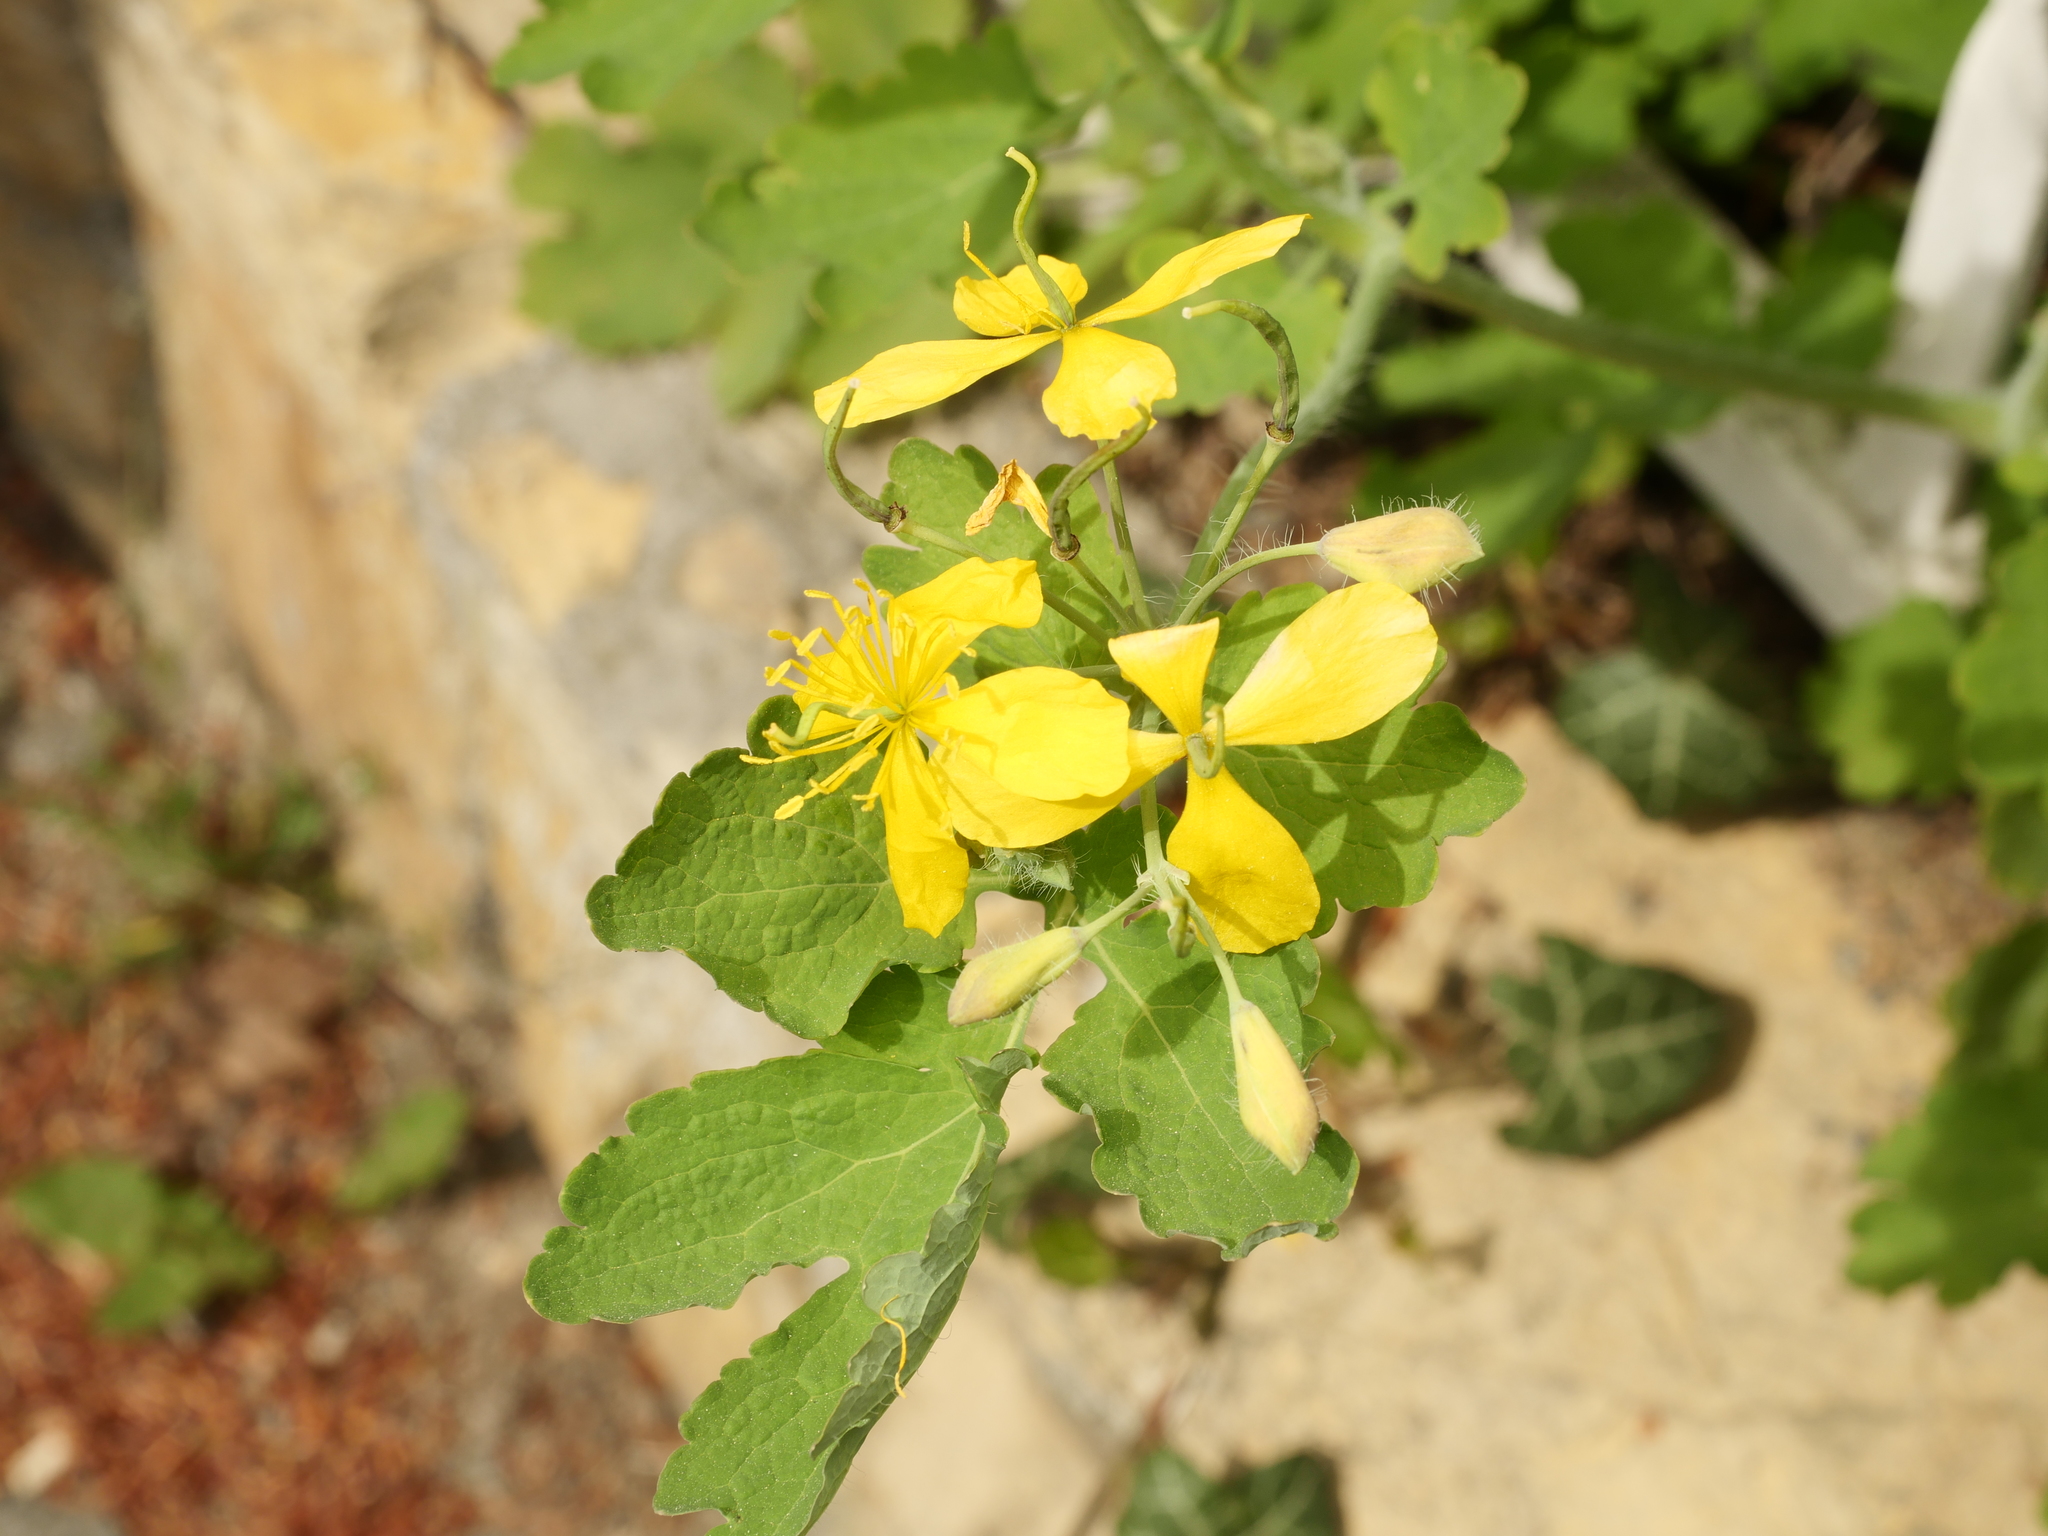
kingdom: Plantae
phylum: Tracheophyta
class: Magnoliopsida
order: Ranunculales
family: Papaveraceae
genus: Chelidonium
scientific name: Chelidonium majus
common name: Greater celandine
